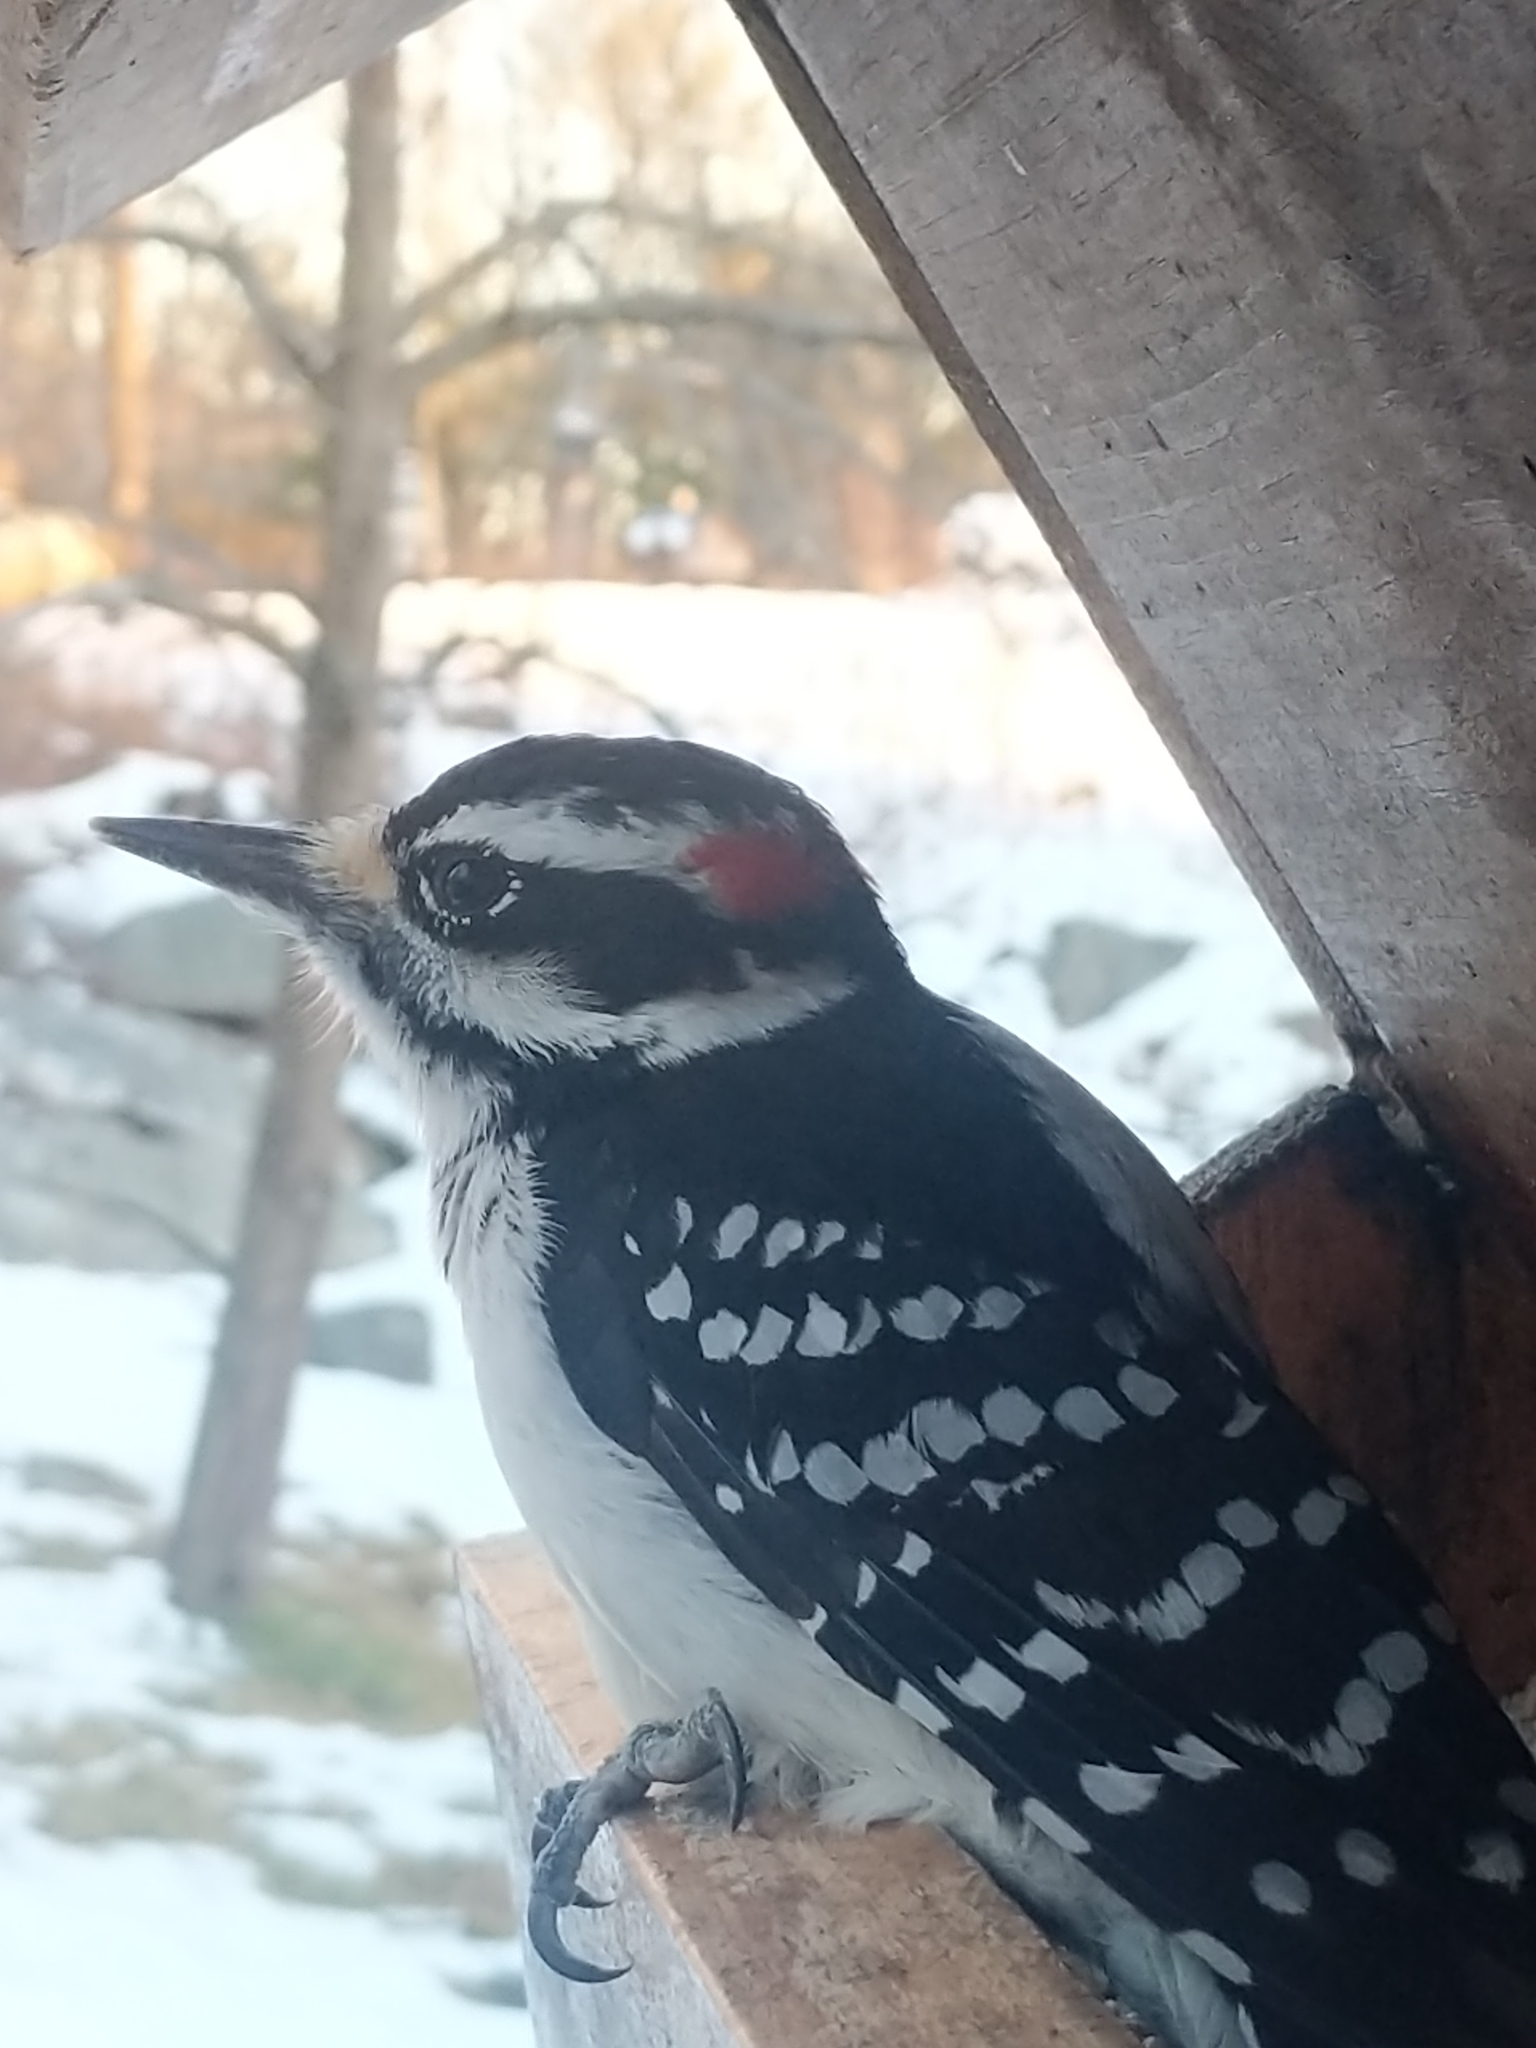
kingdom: Animalia
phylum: Chordata
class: Aves
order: Piciformes
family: Picidae
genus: Leuconotopicus
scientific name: Leuconotopicus villosus
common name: Hairy woodpecker
